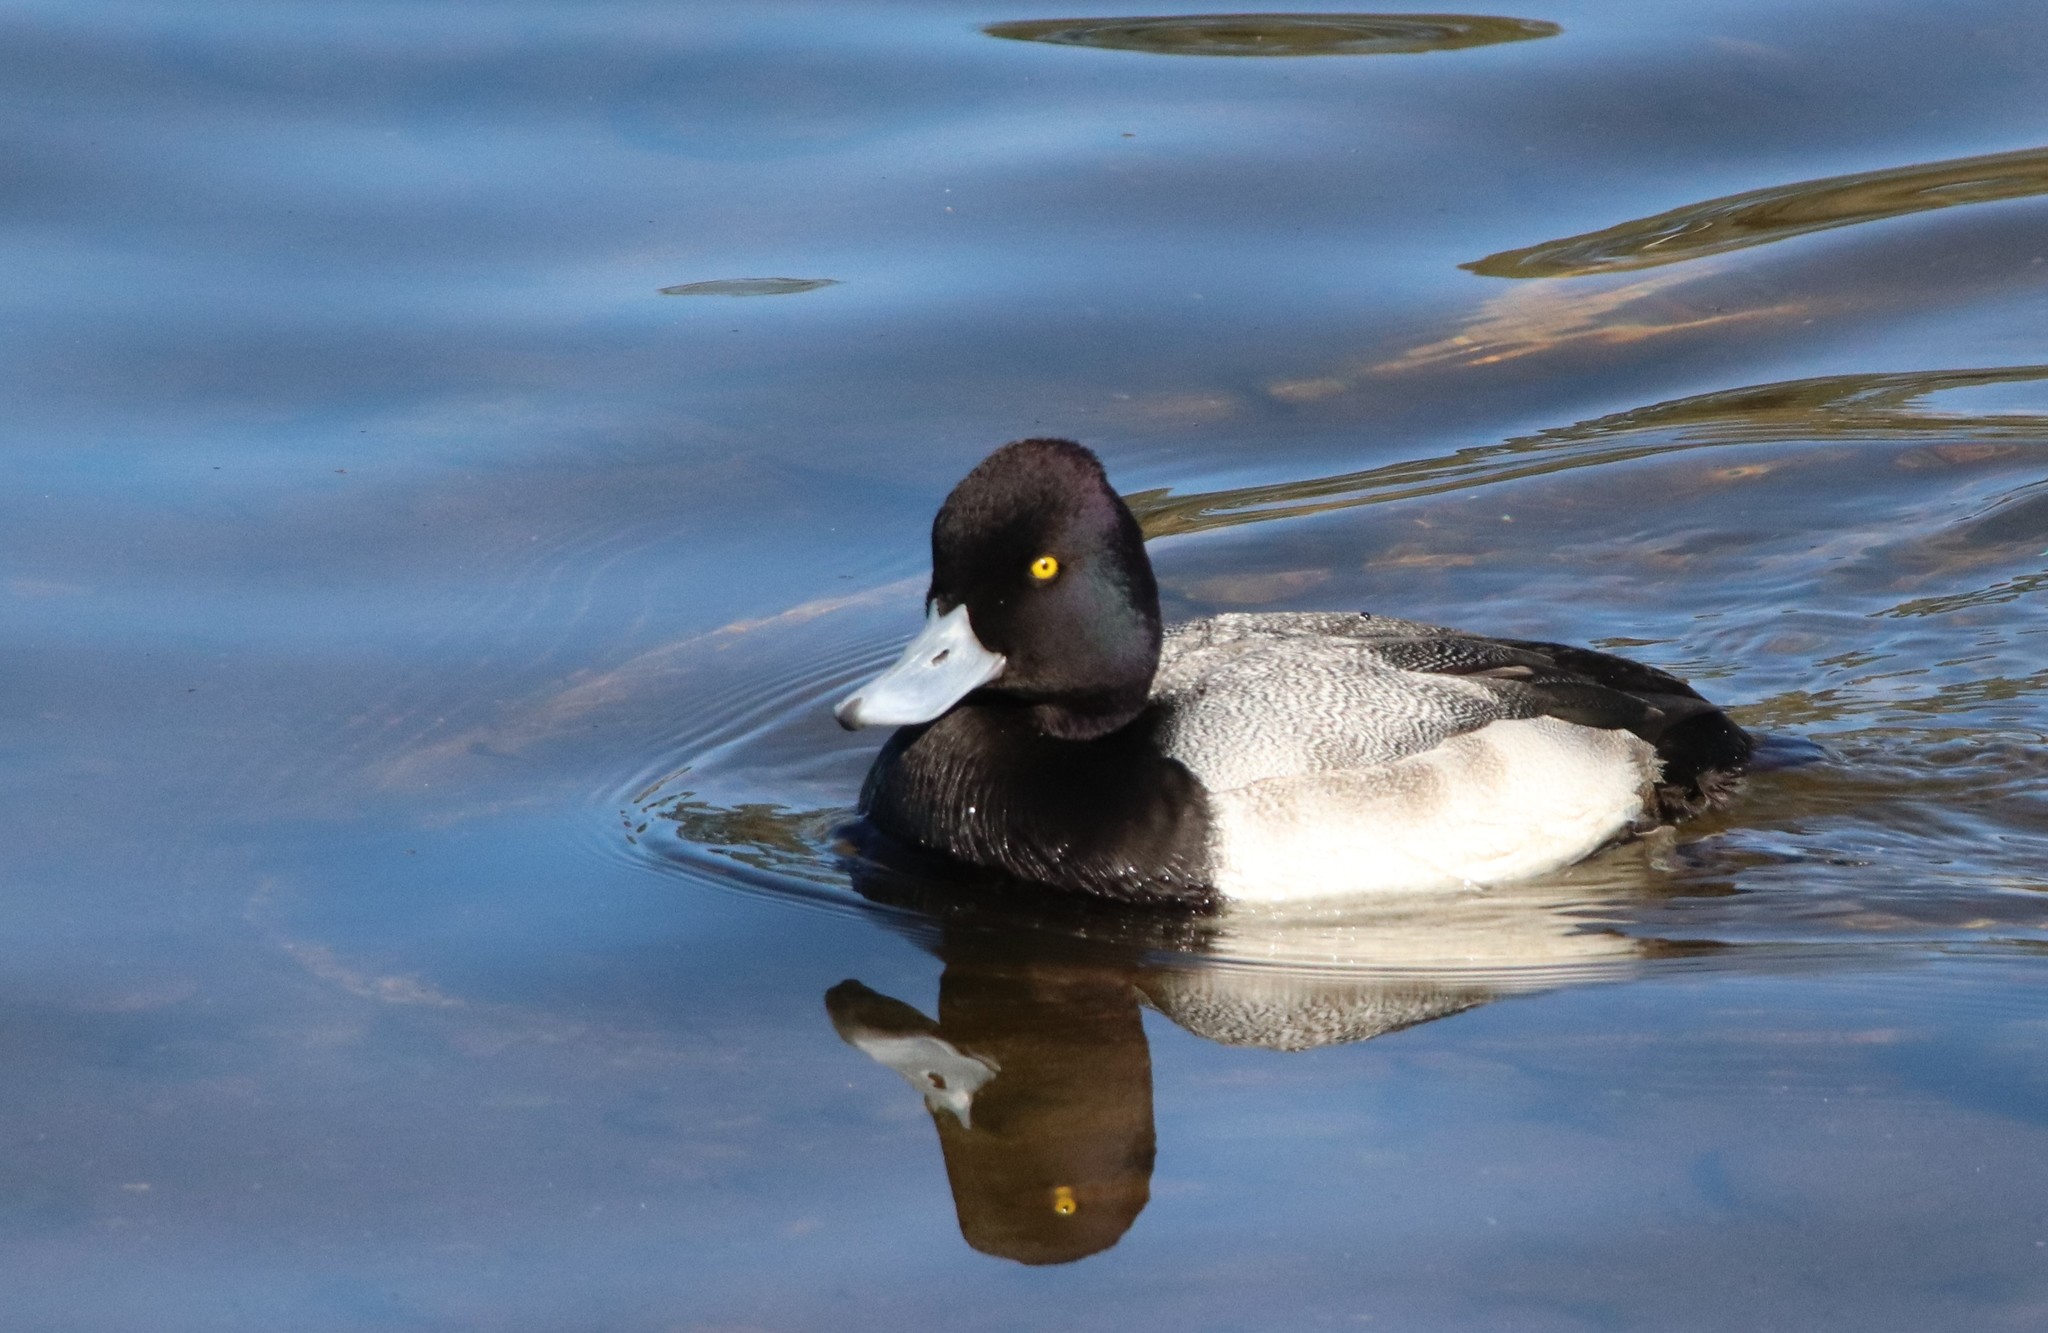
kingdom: Animalia
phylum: Chordata
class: Aves
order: Anseriformes
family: Anatidae
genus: Aythya
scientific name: Aythya affinis
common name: Lesser scaup
